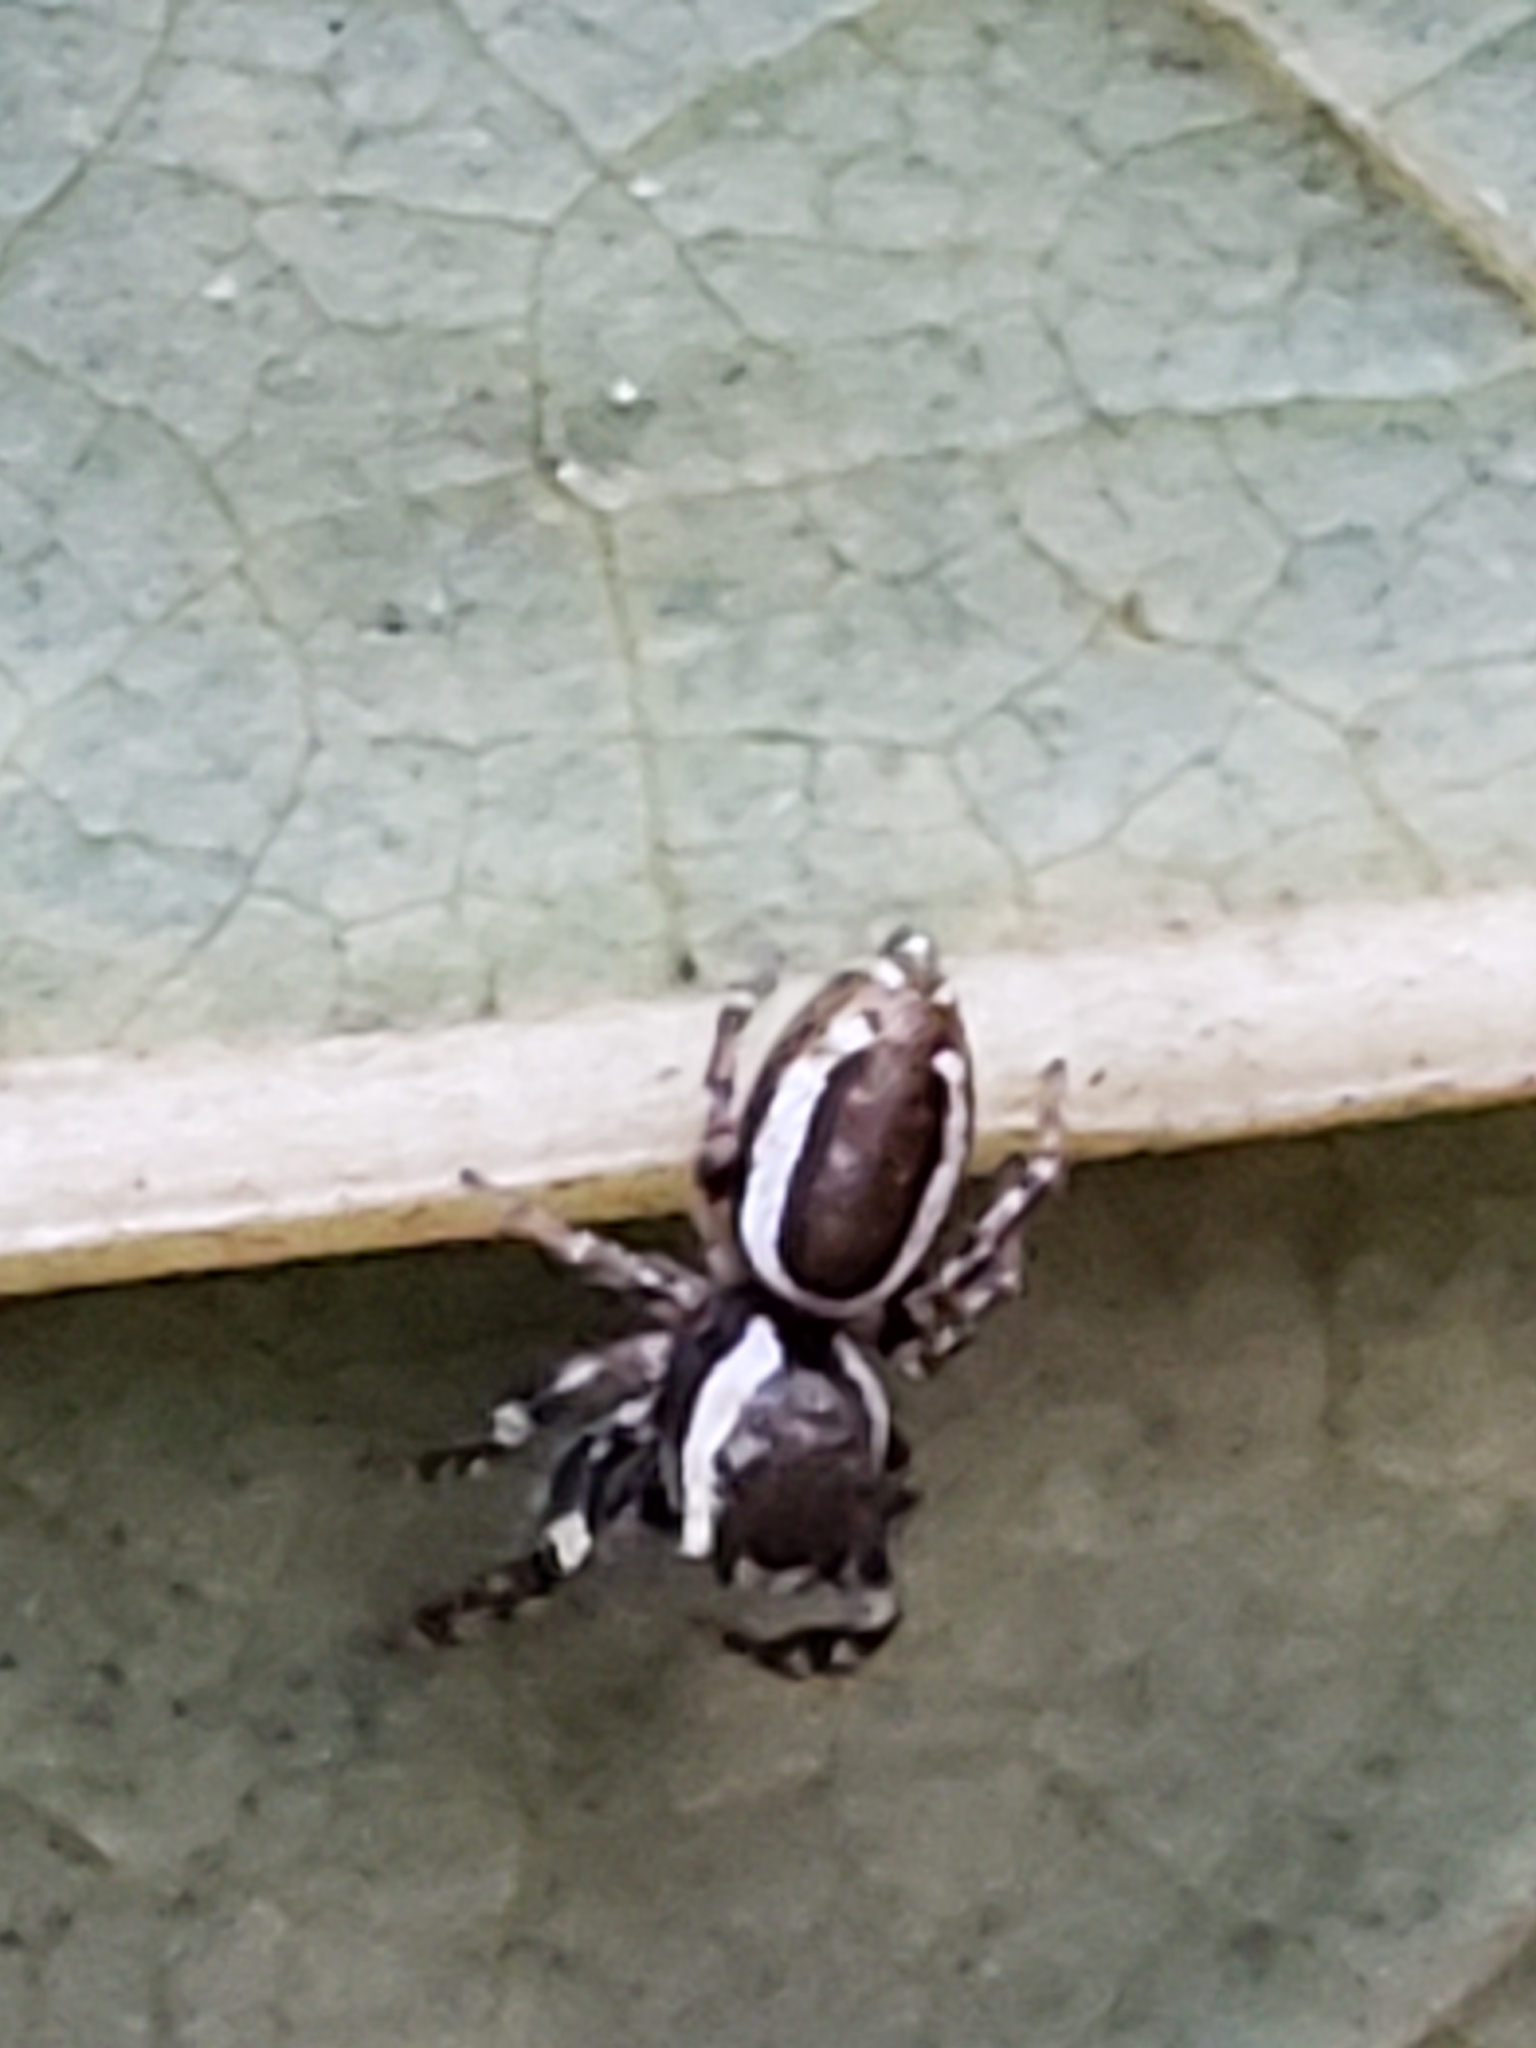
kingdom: Animalia
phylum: Arthropoda
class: Arachnida
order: Araneae
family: Salticidae
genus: Pelegrina
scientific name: Pelegrina proterva
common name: Common white-cheeked jumping spider
